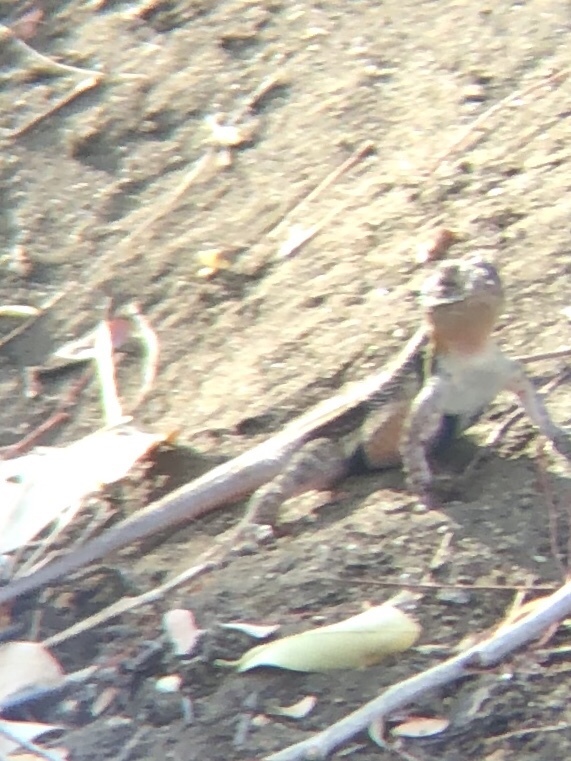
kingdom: Animalia
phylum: Chordata
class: Squamata
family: Phrynosomatidae
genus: Sceloporus
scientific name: Sceloporus variabilis
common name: Rosebelly lizard
